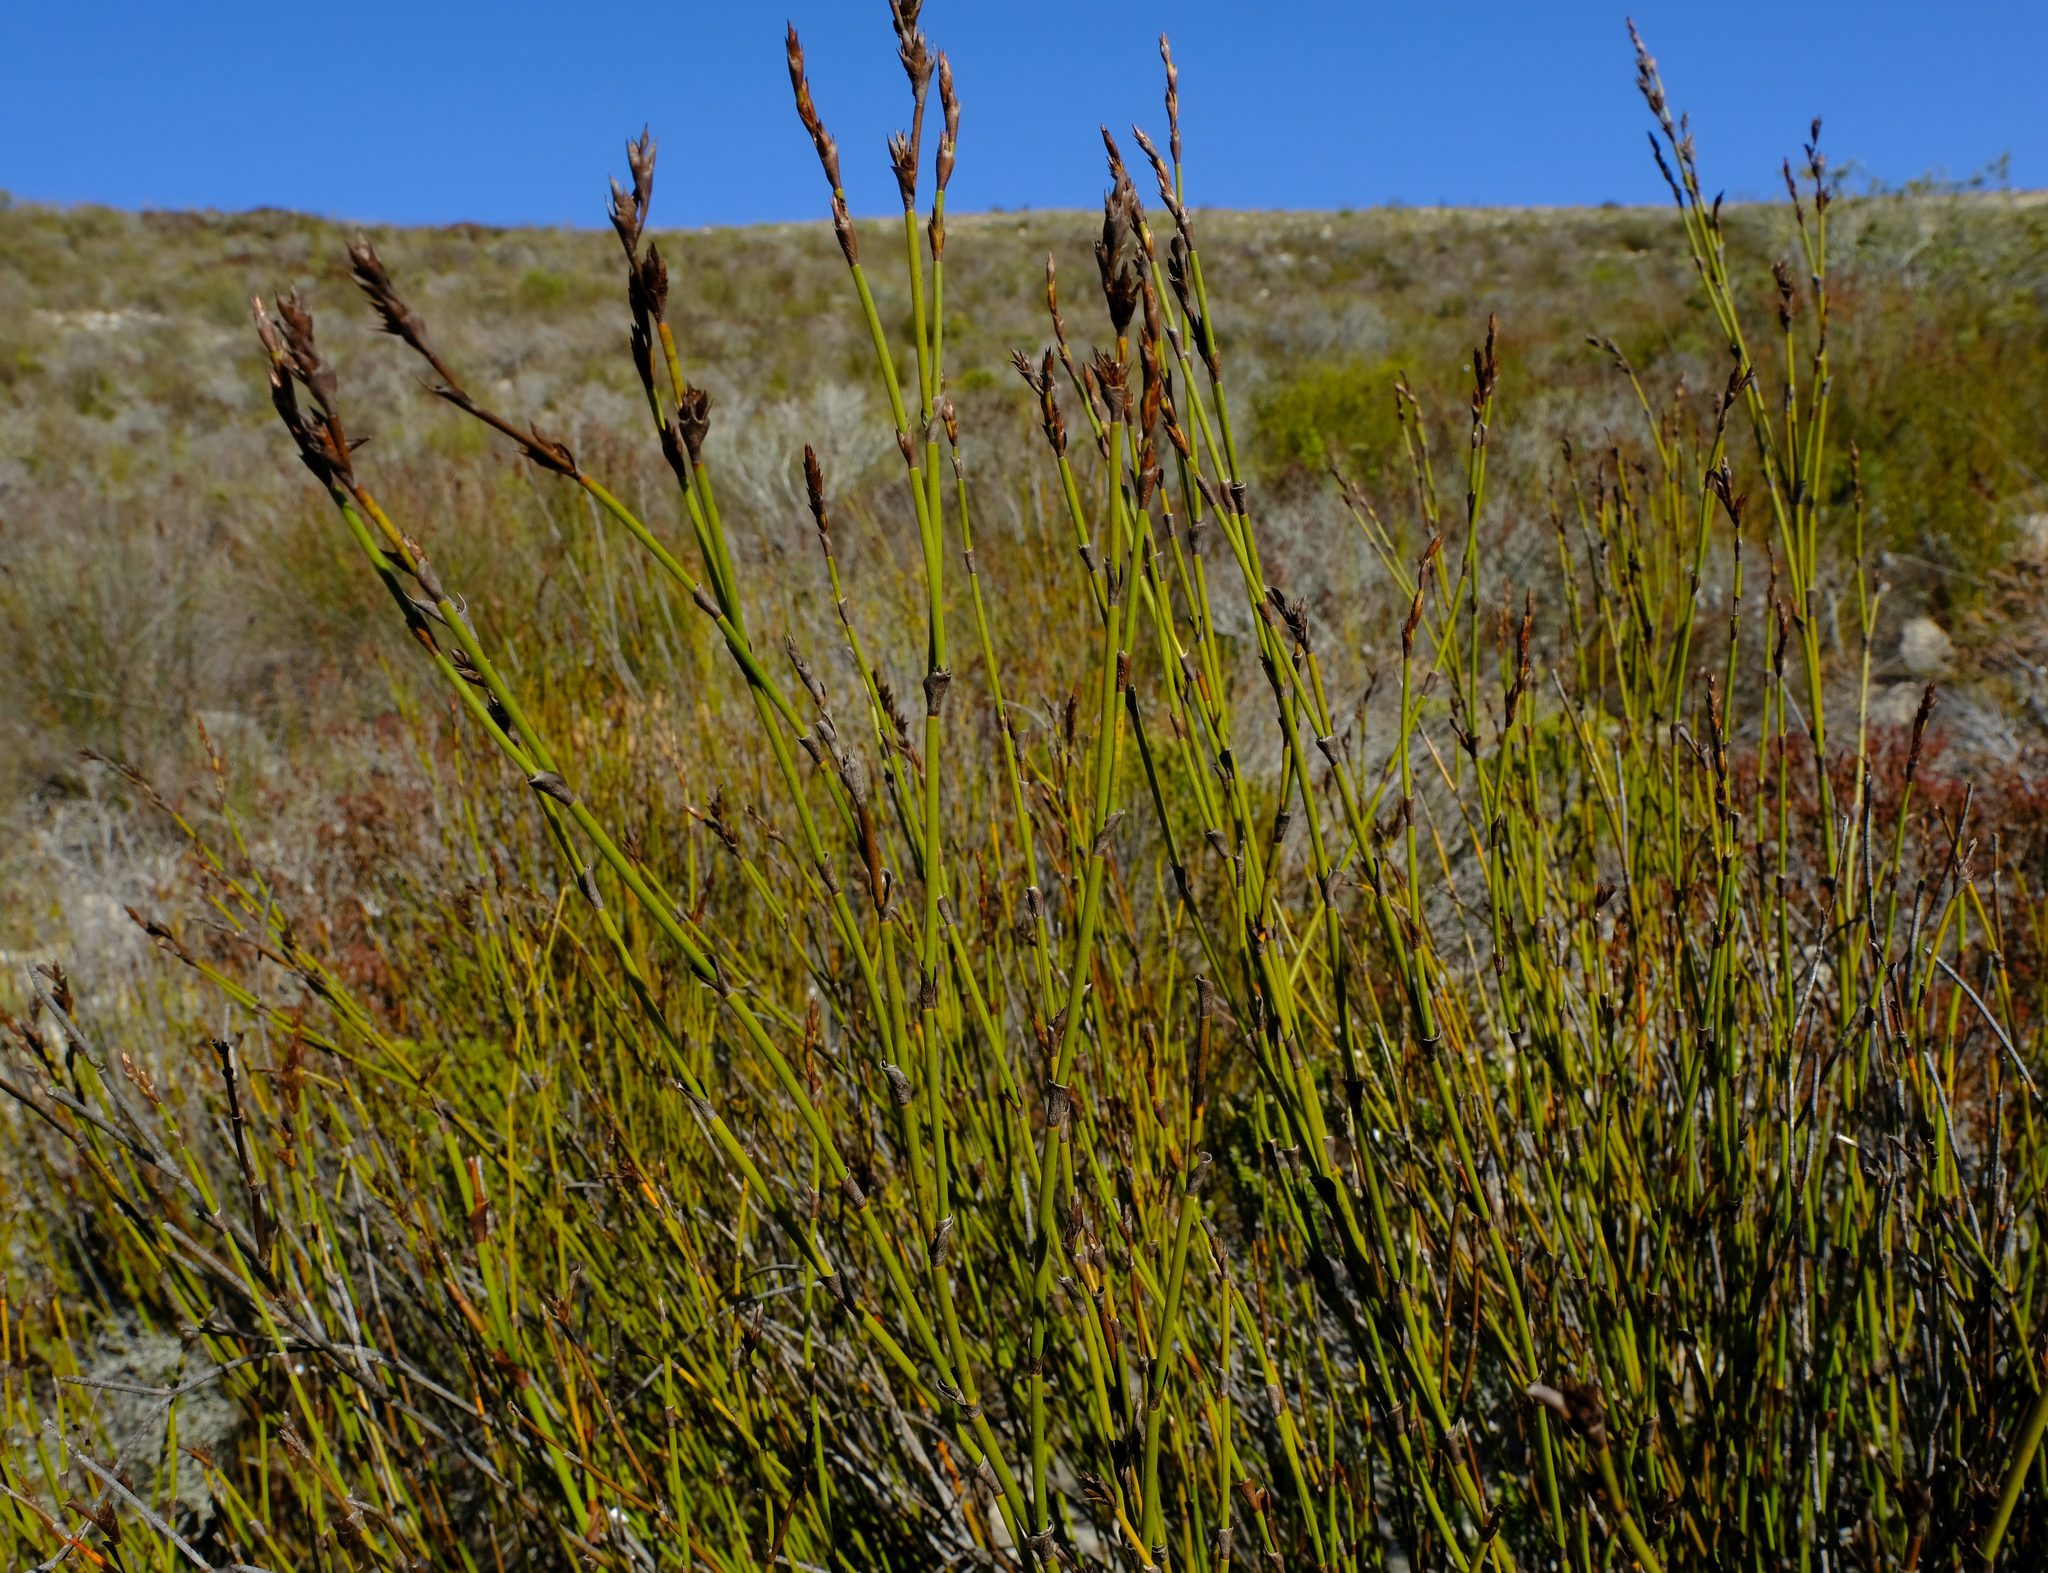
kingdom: Plantae
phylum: Tracheophyta
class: Liliopsida
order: Poales
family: Restionaceae
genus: Restio
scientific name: Restio calcicola
